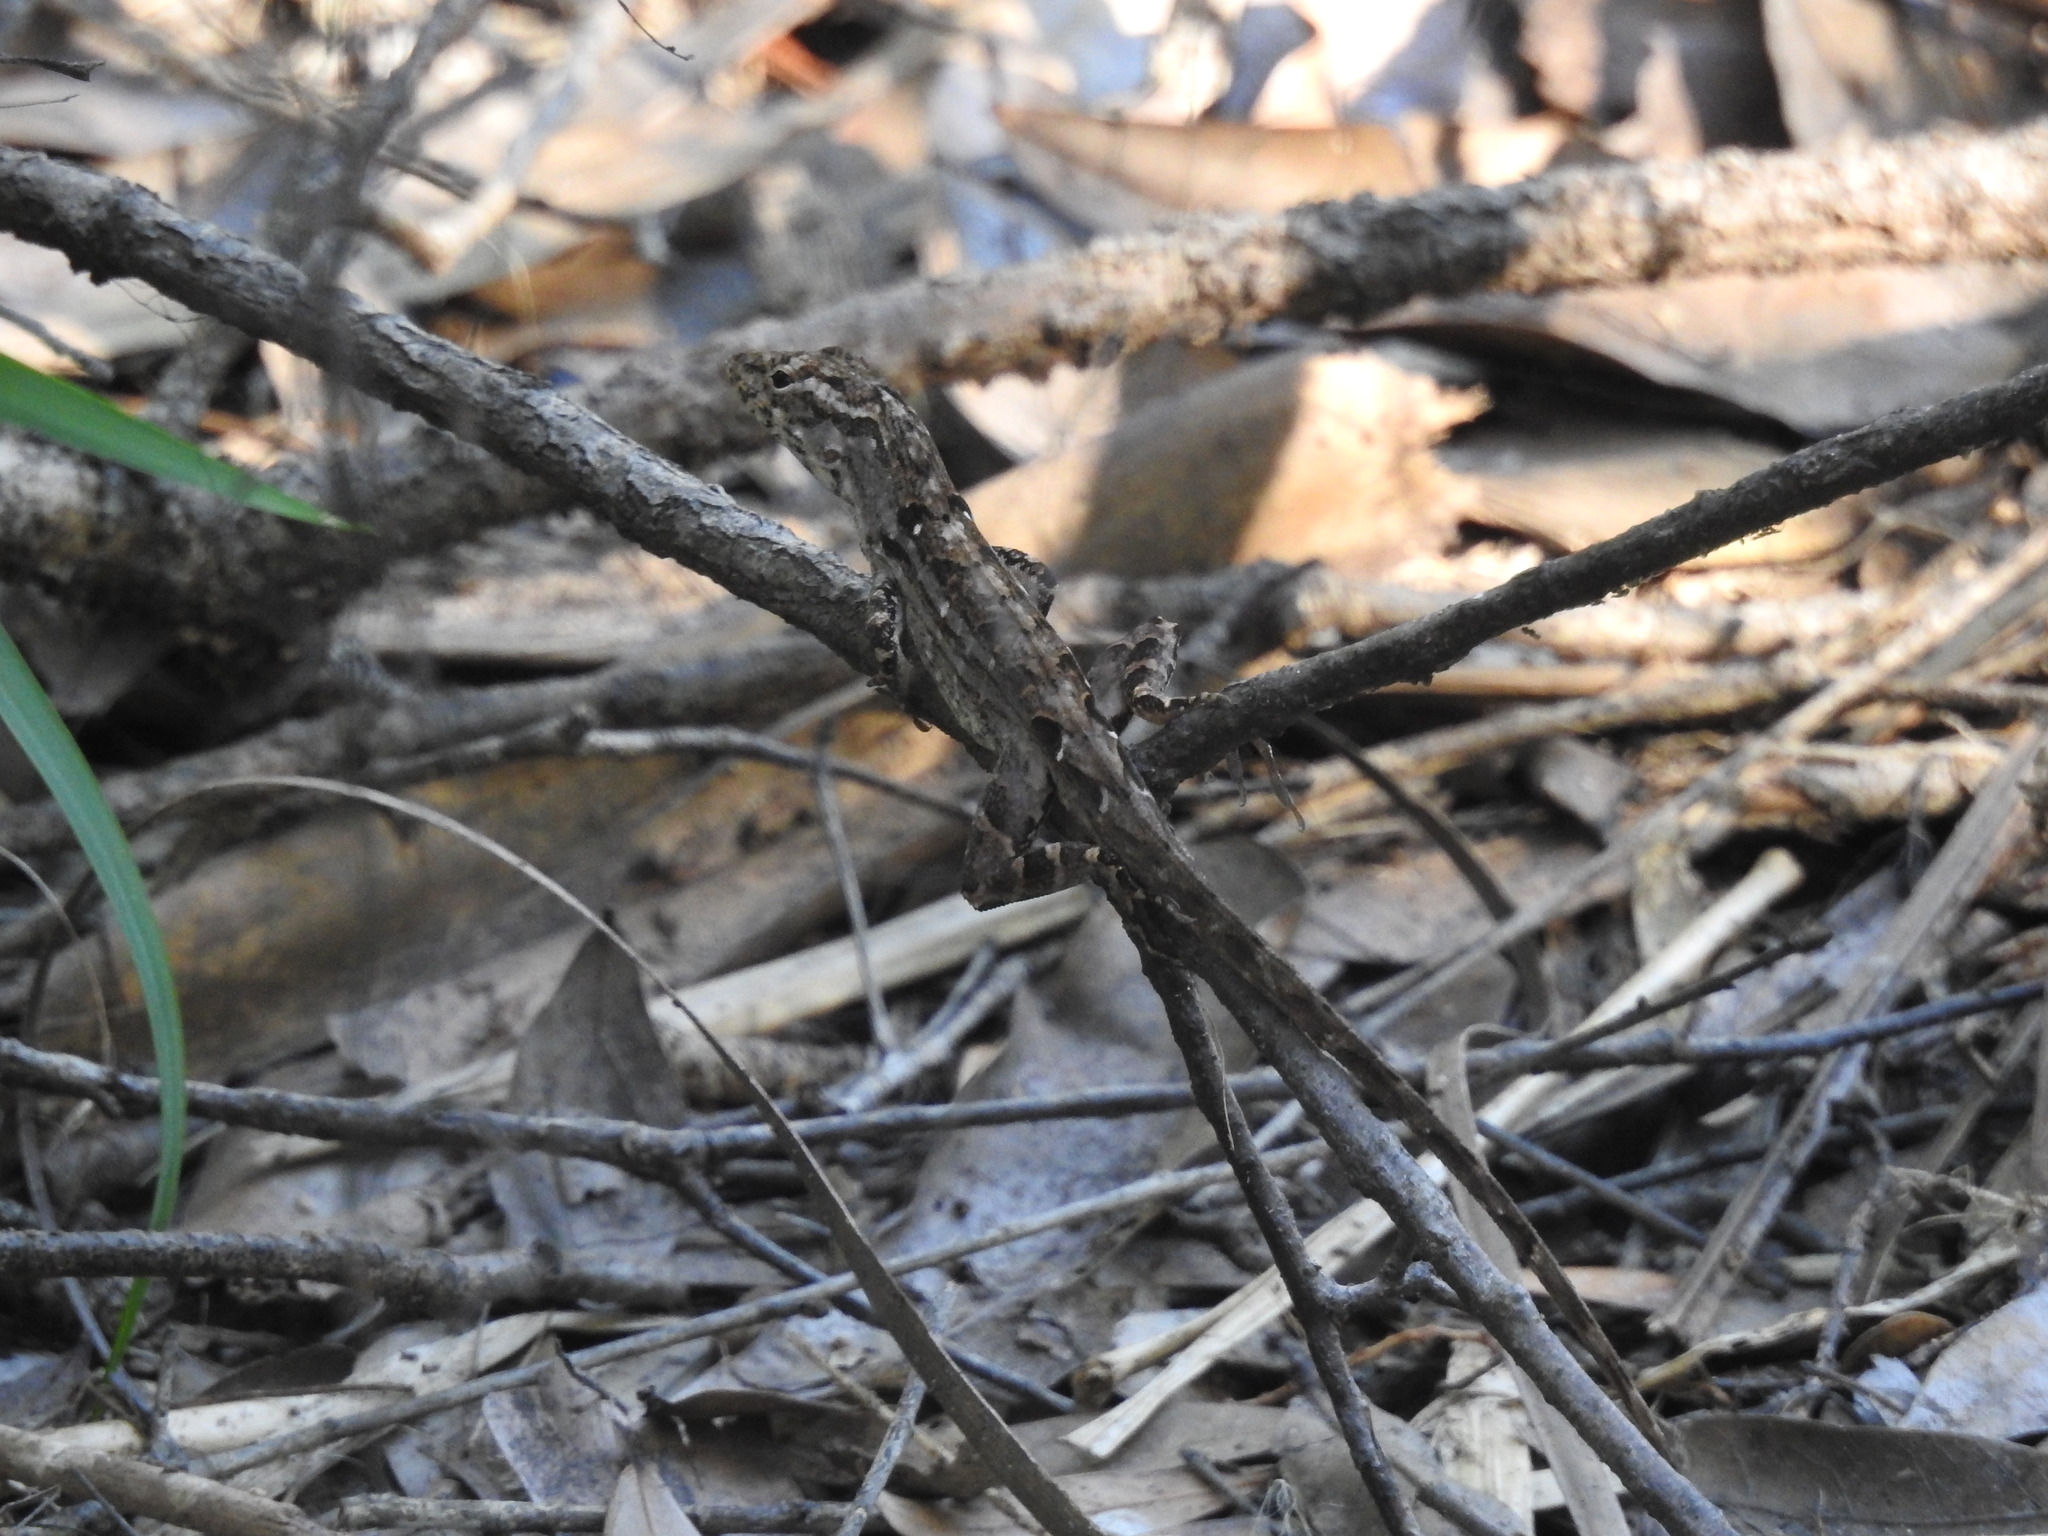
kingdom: Animalia
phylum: Chordata
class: Squamata
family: Dactyloidae
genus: Anolis
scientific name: Anolis sagrei
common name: Brown anole
